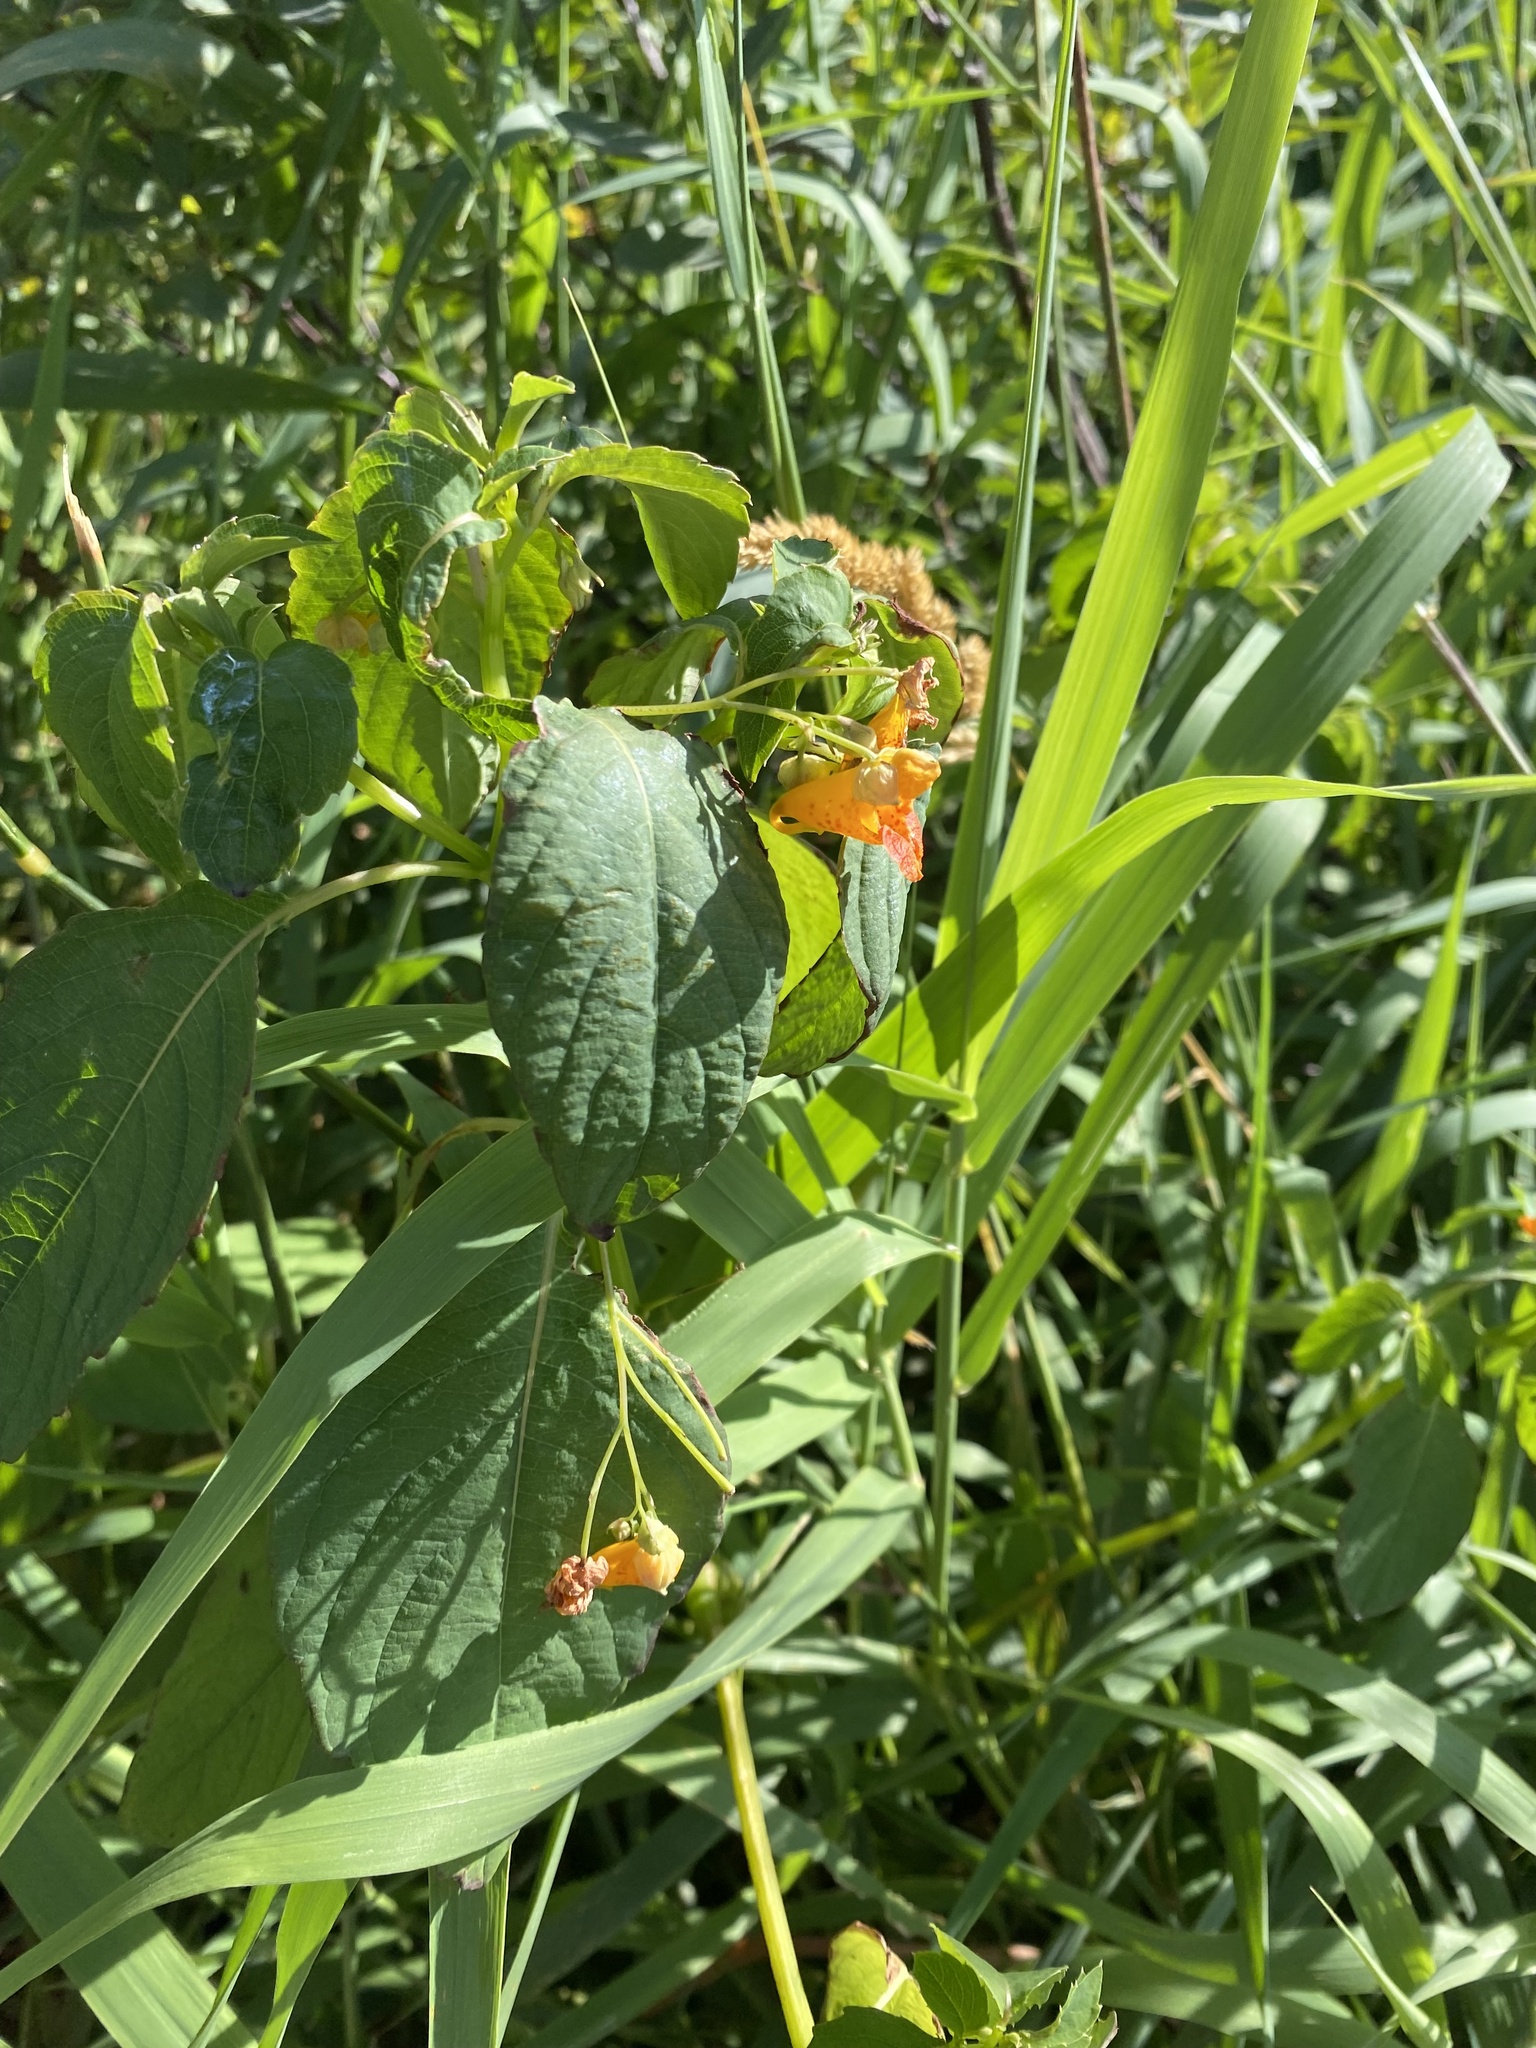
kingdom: Plantae
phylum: Tracheophyta
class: Magnoliopsida
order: Ericales
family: Balsaminaceae
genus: Impatiens
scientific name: Impatiens capensis
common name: Orange balsam
